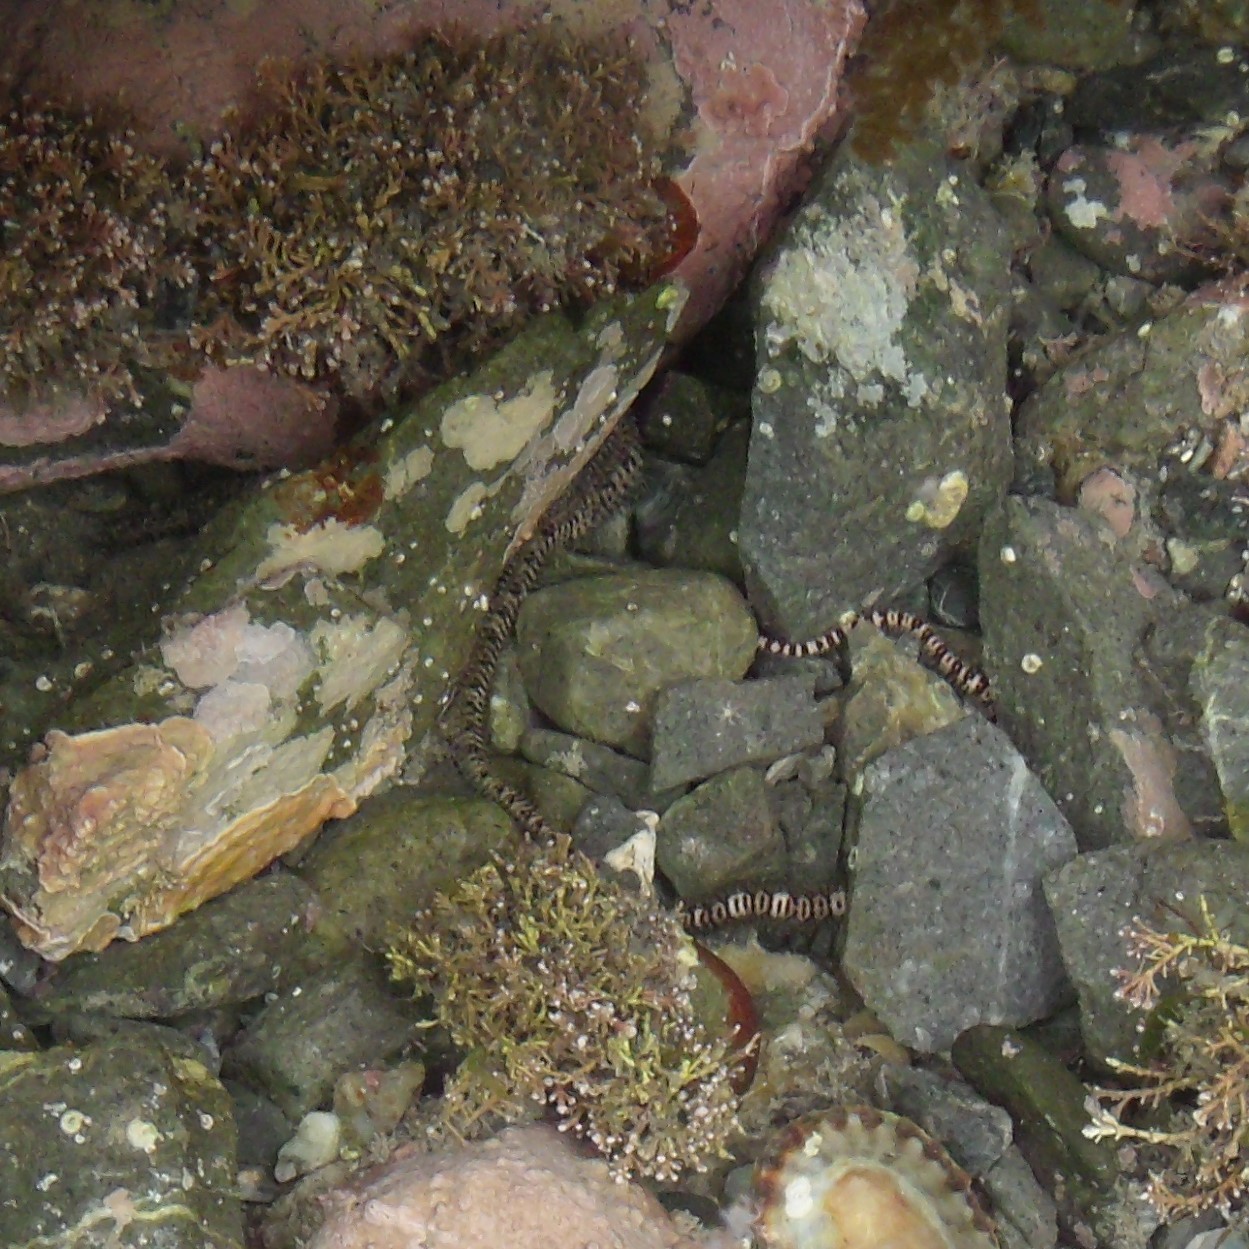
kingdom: Animalia
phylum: Echinodermata
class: Ophiuroidea
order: Amphilepidida
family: Ophionereididae
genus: Ophionereis
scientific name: Ophionereis fasciata
